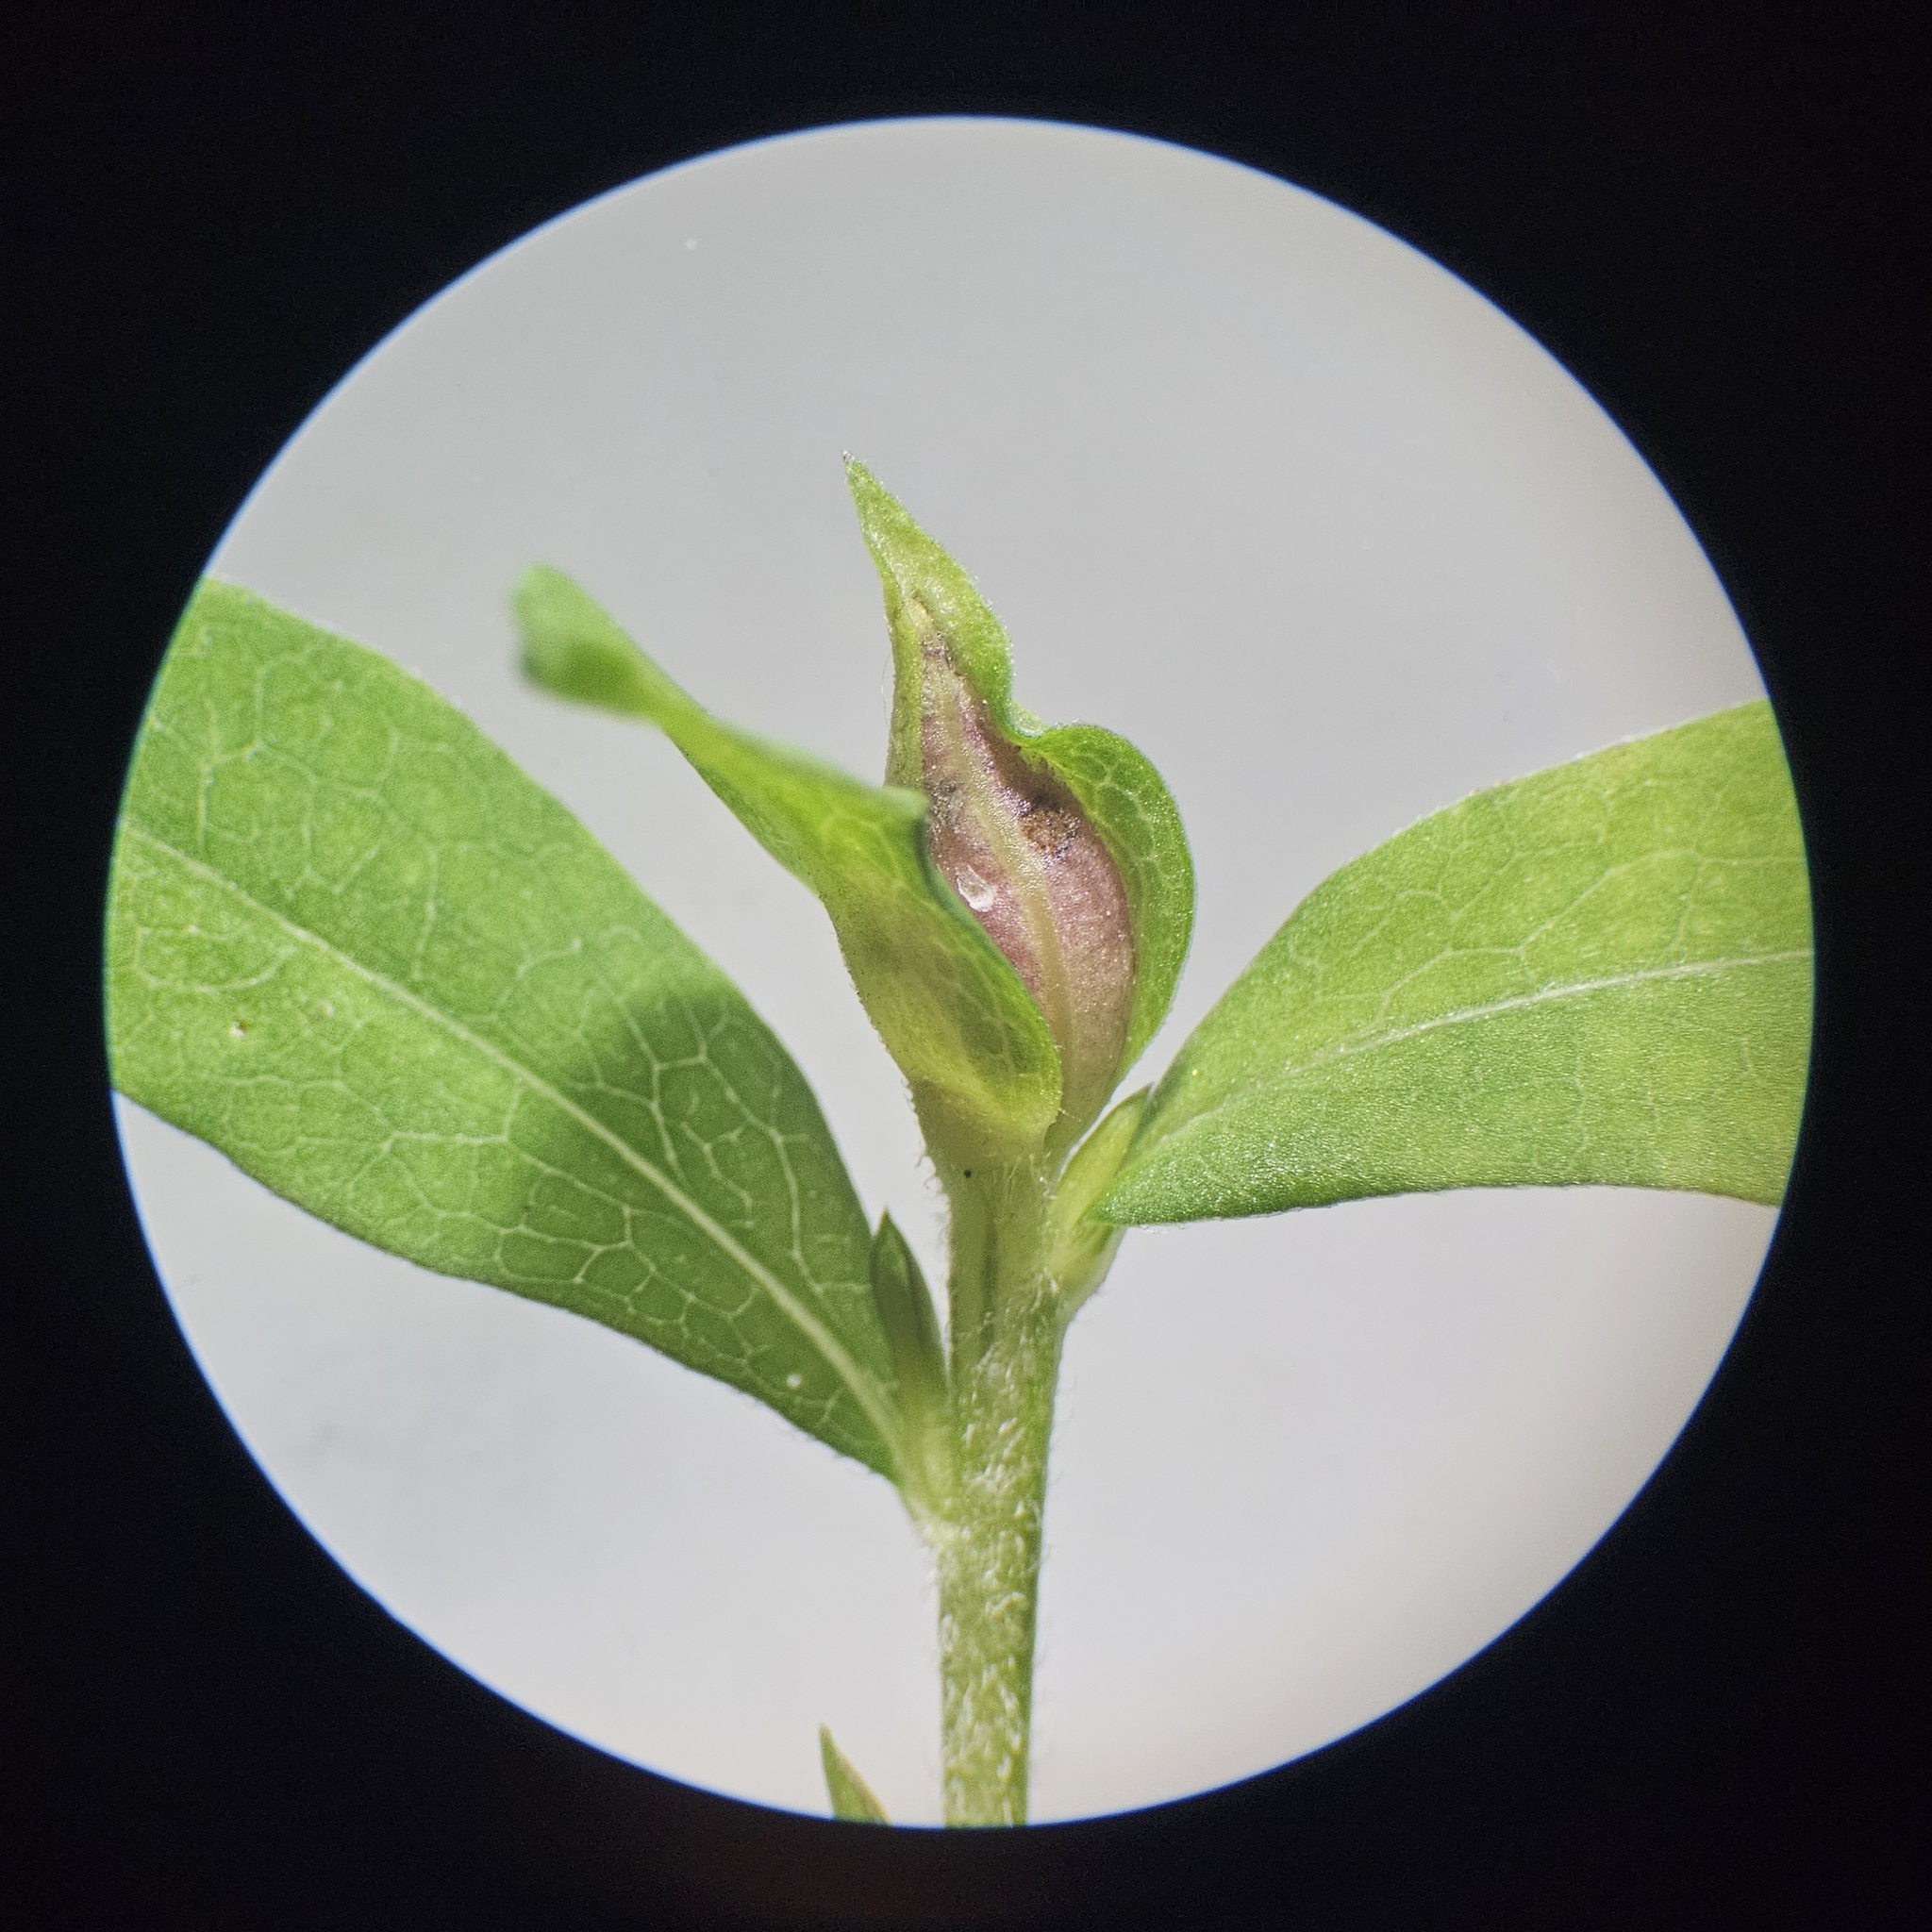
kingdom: Animalia
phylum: Arthropoda
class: Insecta
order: Diptera
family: Cecidomyiidae
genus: Asphondylia
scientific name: Asphondylia imbricata
